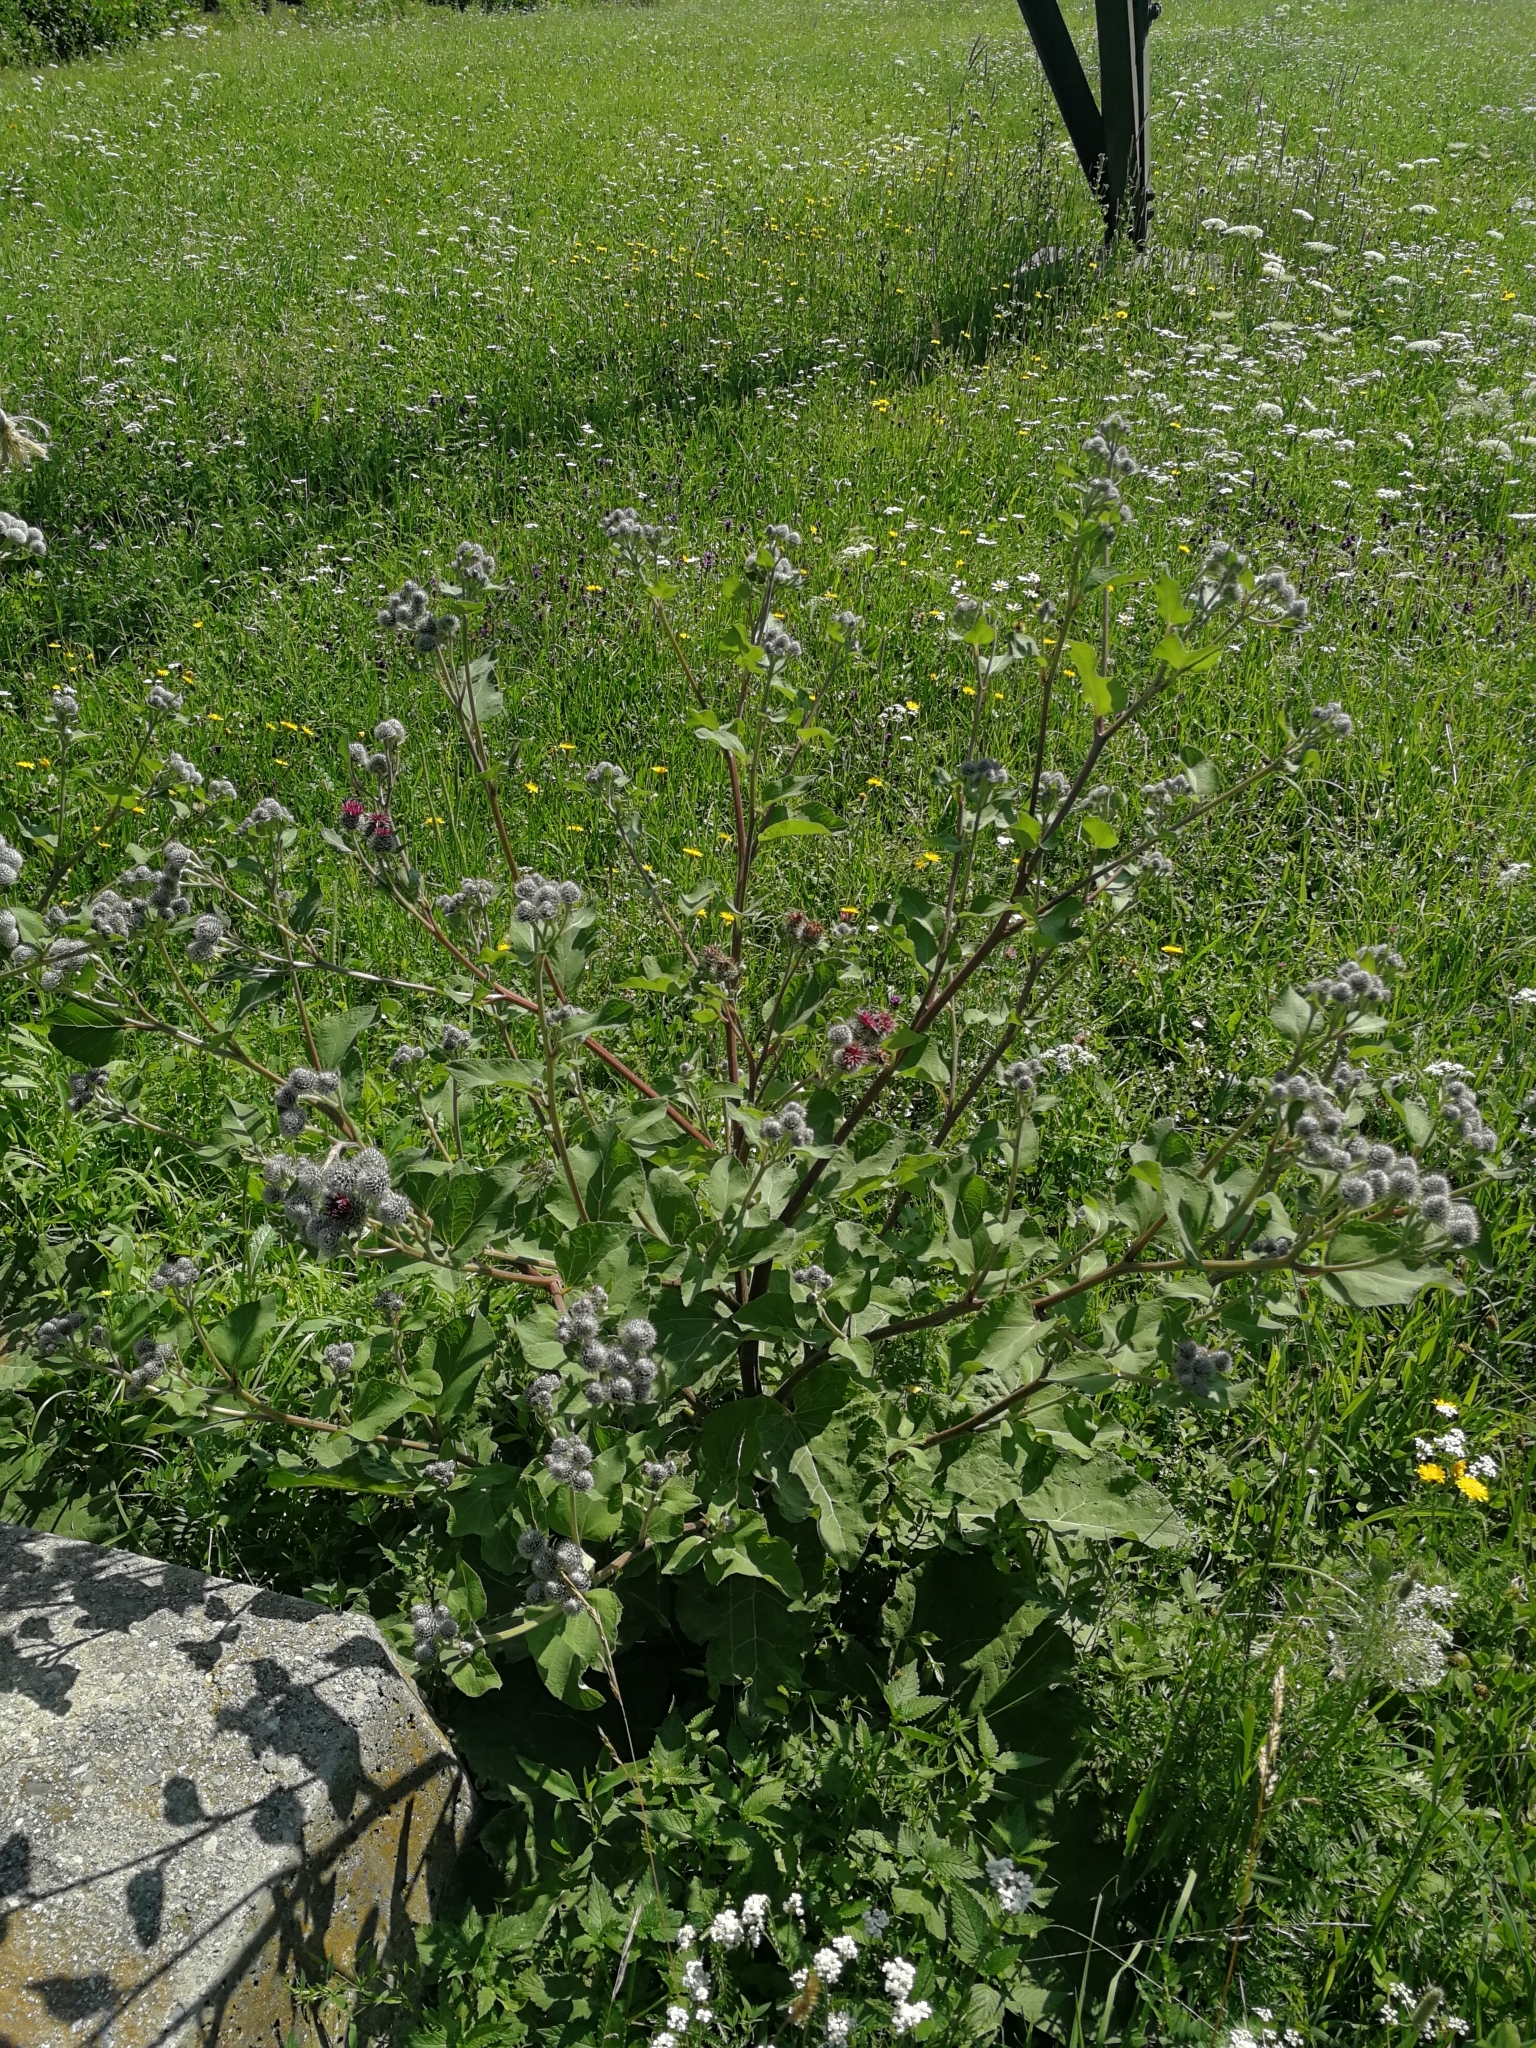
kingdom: Plantae
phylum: Tracheophyta
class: Magnoliopsida
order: Asterales
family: Asteraceae
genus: Arctium
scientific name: Arctium tomentosum
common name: Woolly burdock
